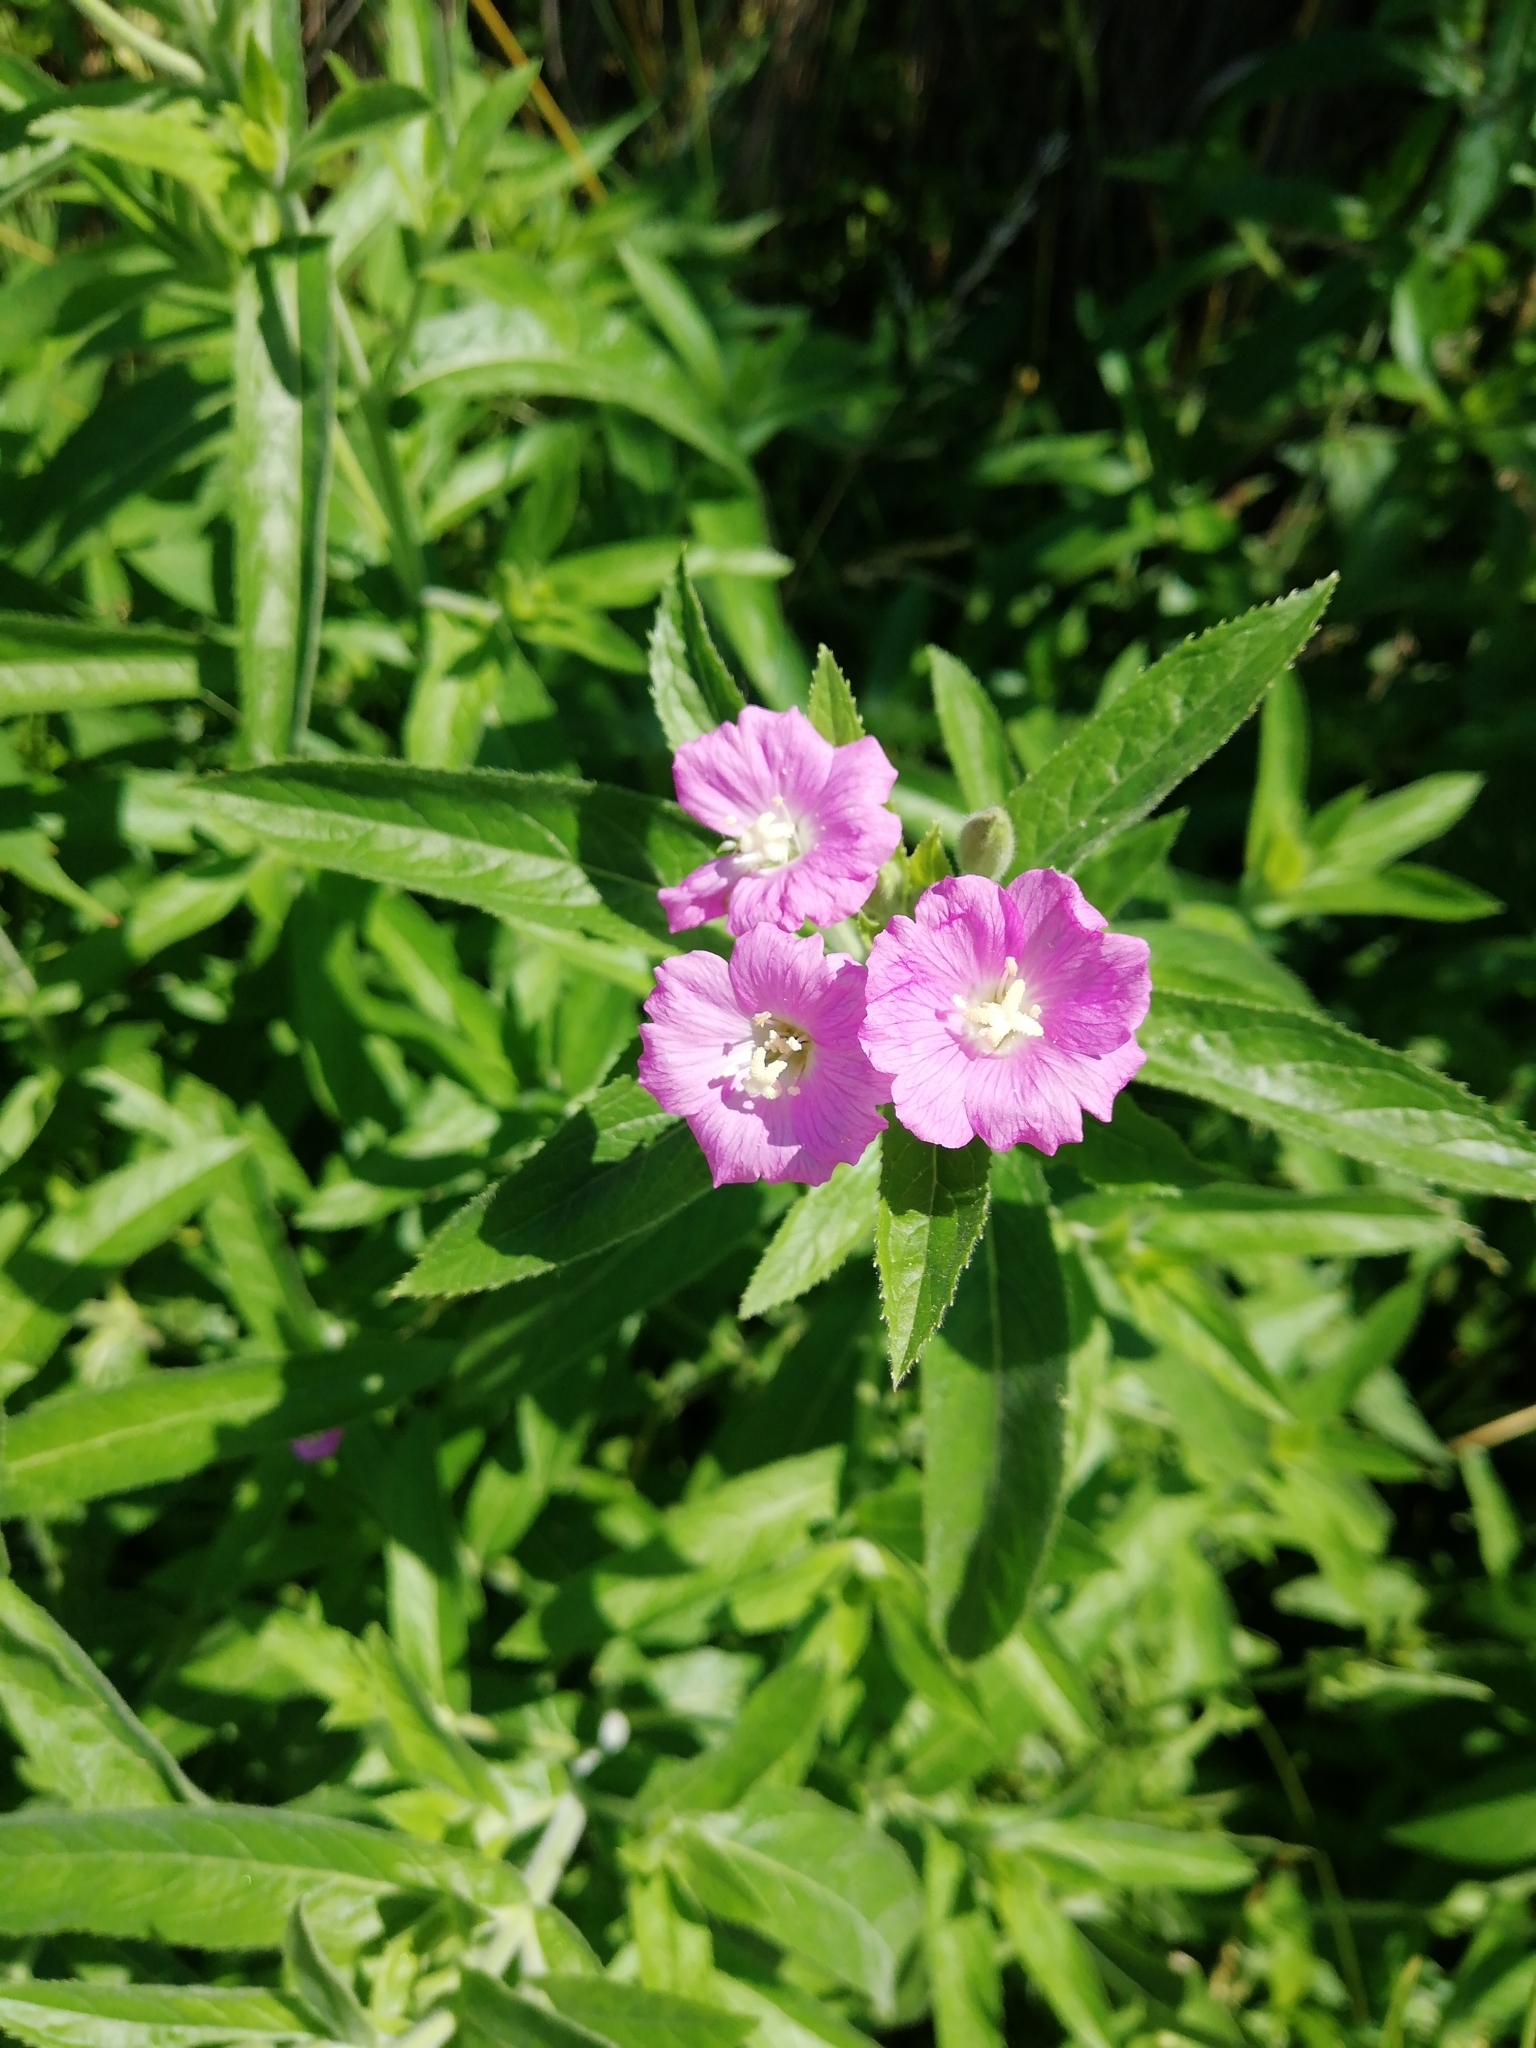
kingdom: Plantae
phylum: Tracheophyta
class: Magnoliopsida
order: Myrtales
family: Onagraceae
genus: Epilobium
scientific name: Epilobium hirsutum
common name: Great willowherb
